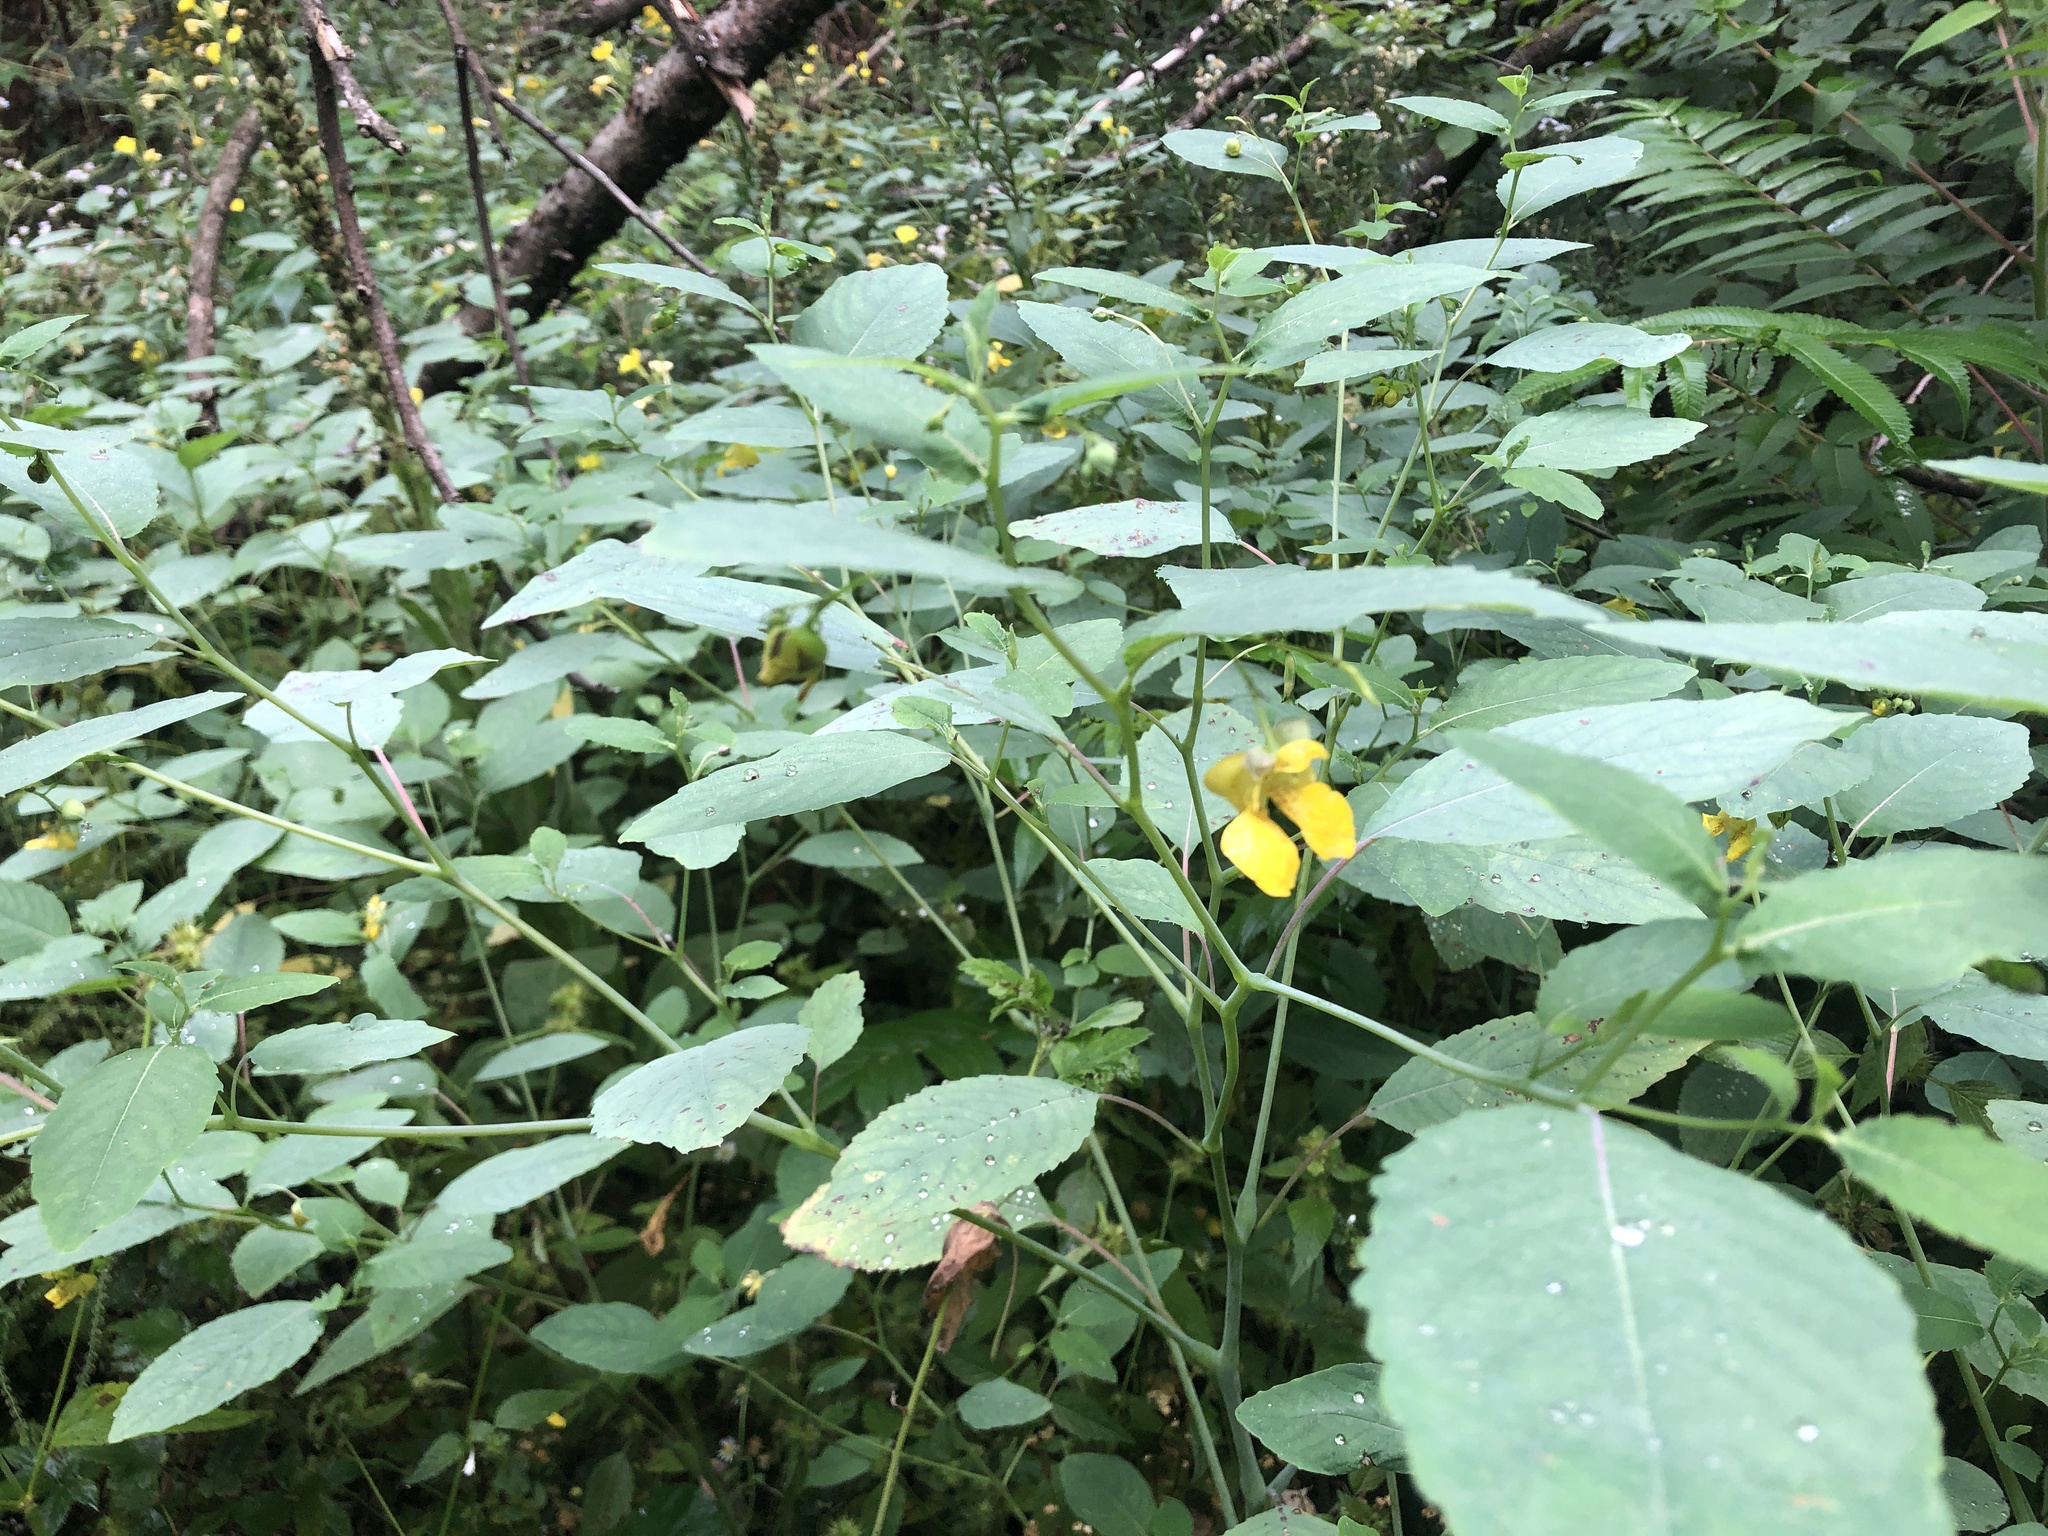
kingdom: Plantae
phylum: Tracheophyta
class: Magnoliopsida
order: Ericales
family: Balsaminaceae
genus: Impatiens
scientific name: Impatiens pallida
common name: Pale snapweed
